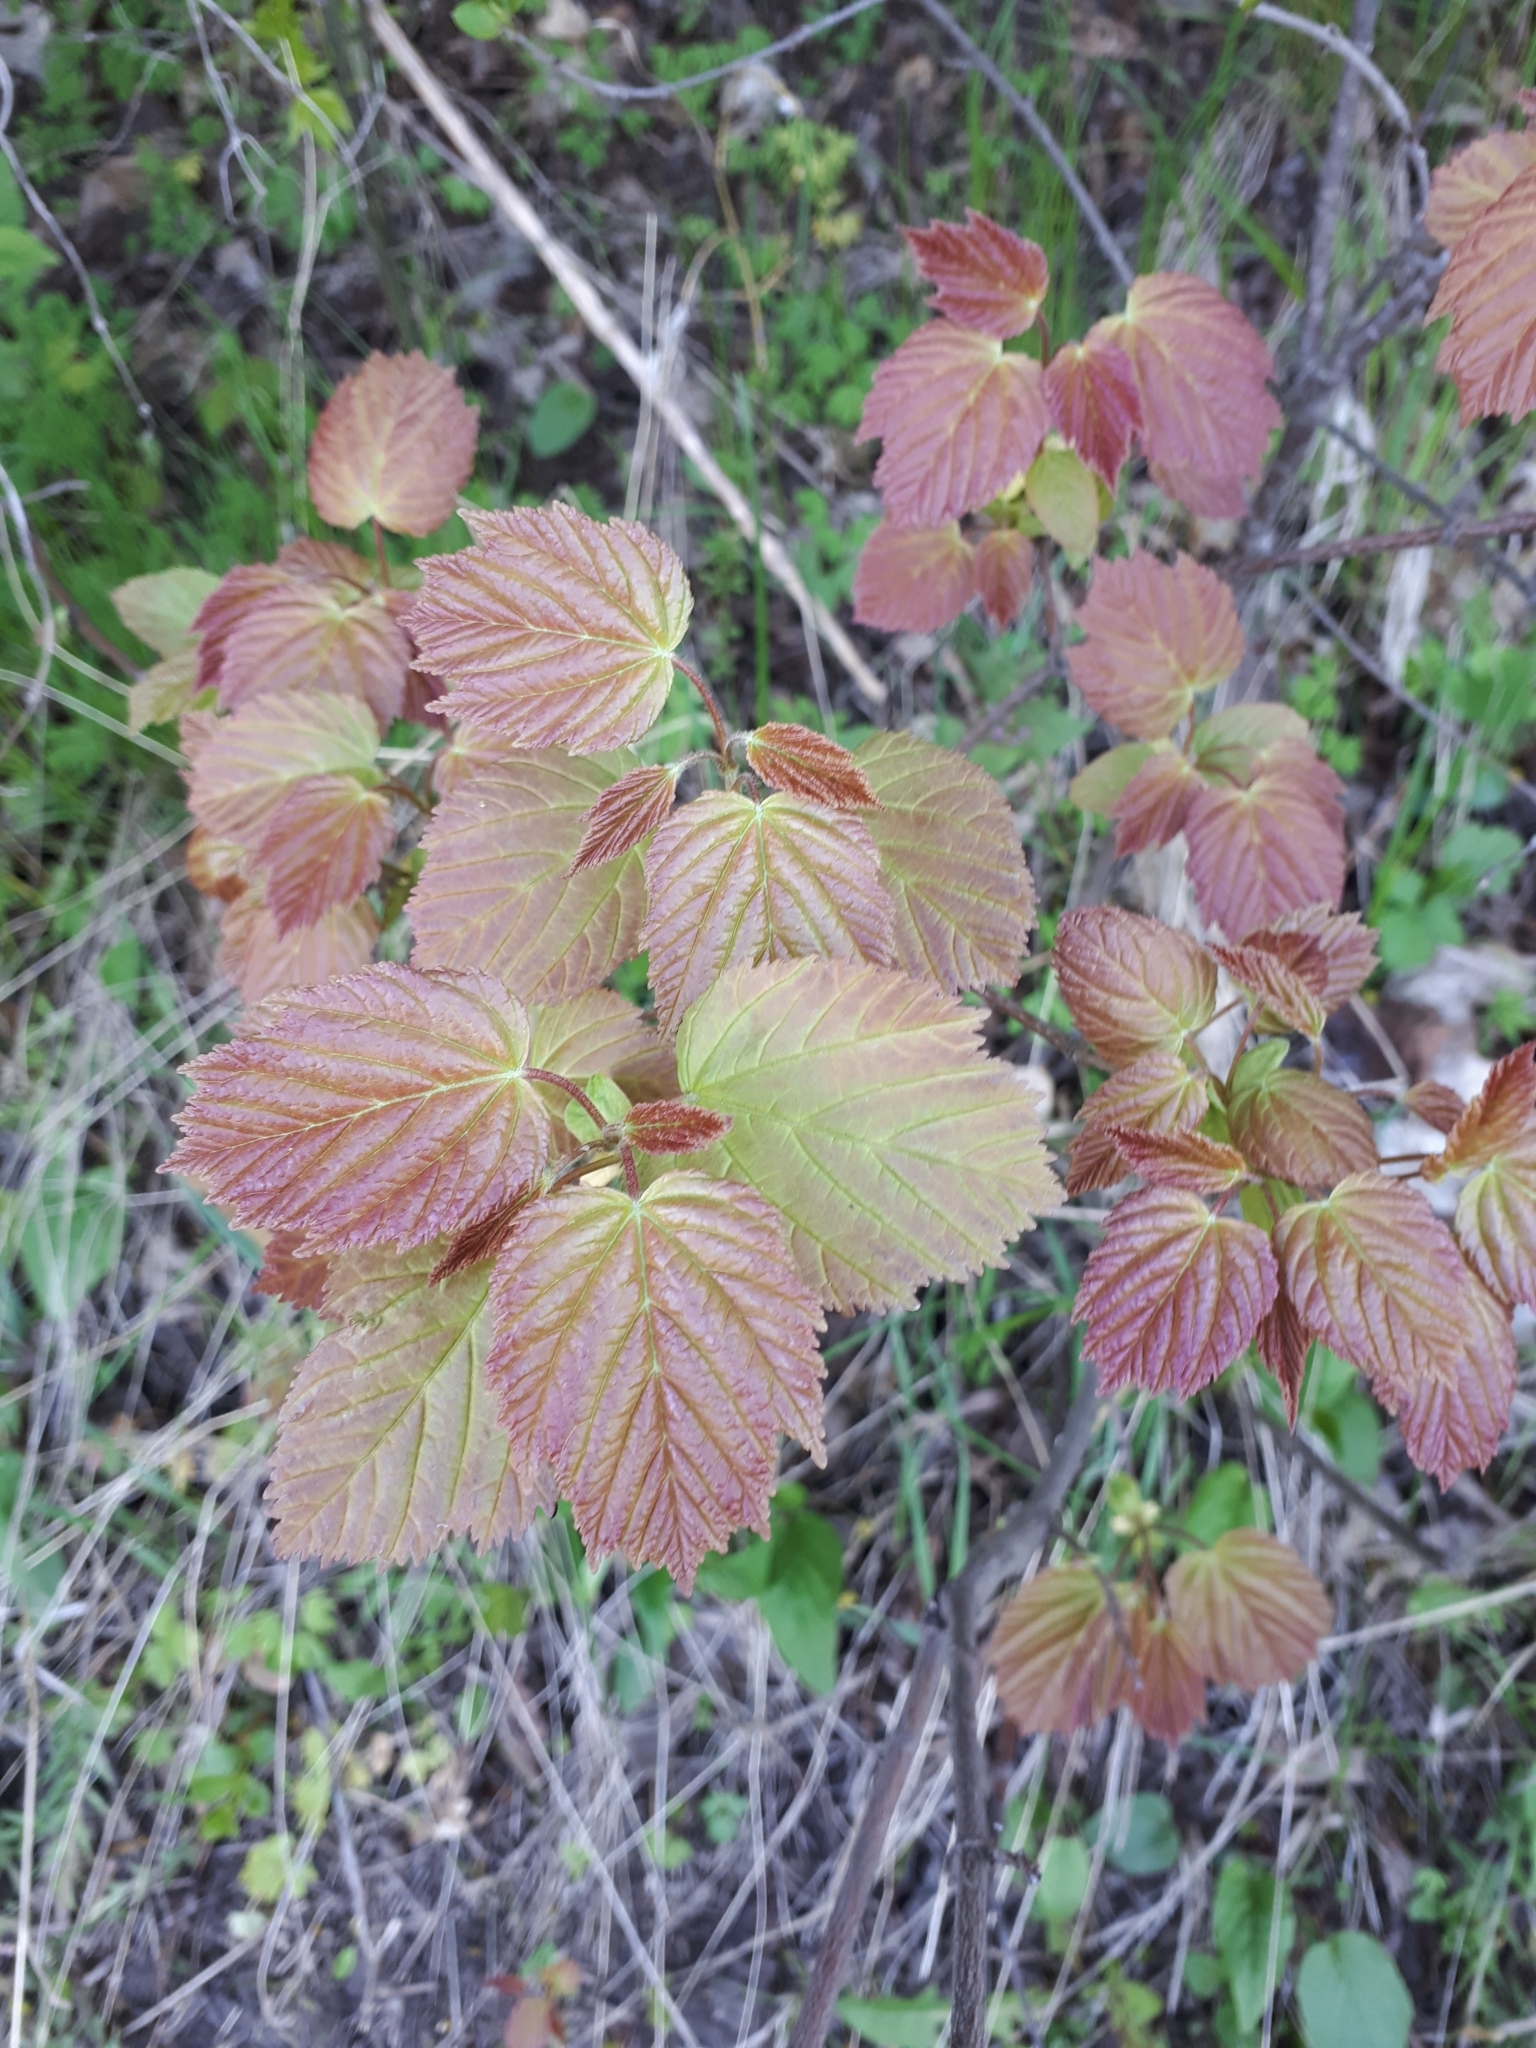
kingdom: Plantae
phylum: Tracheophyta
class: Magnoliopsida
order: Sapindales
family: Sapindaceae
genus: Acer
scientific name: Acer tataricum
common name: Tartar maple
